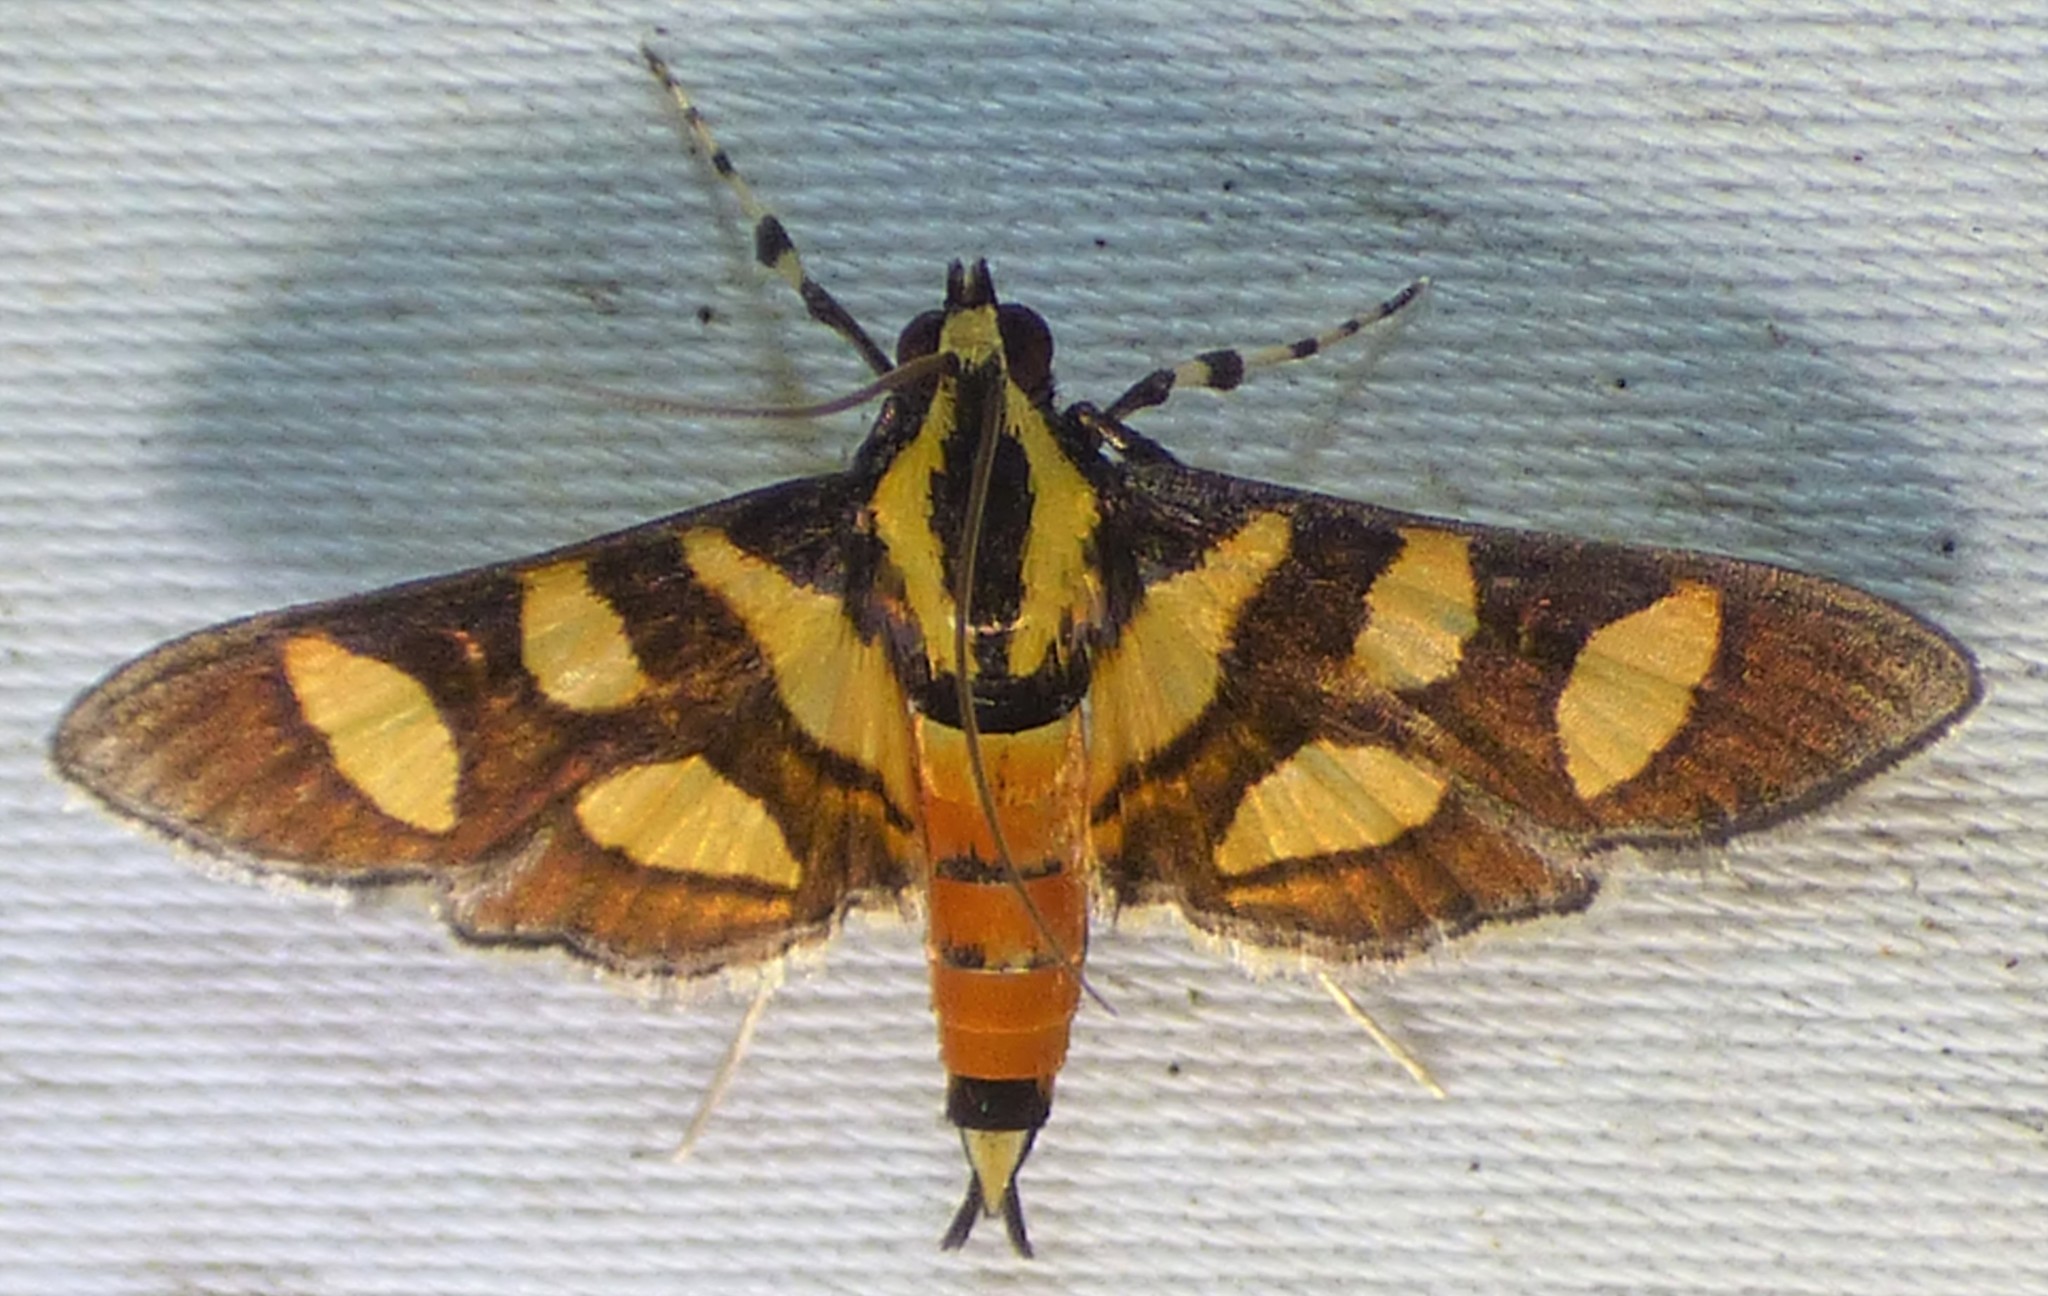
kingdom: Animalia
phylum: Arthropoda
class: Insecta
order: Lepidoptera
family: Crambidae
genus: Syngamia
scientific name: Syngamia florella
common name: Orange-spotted flower moth
